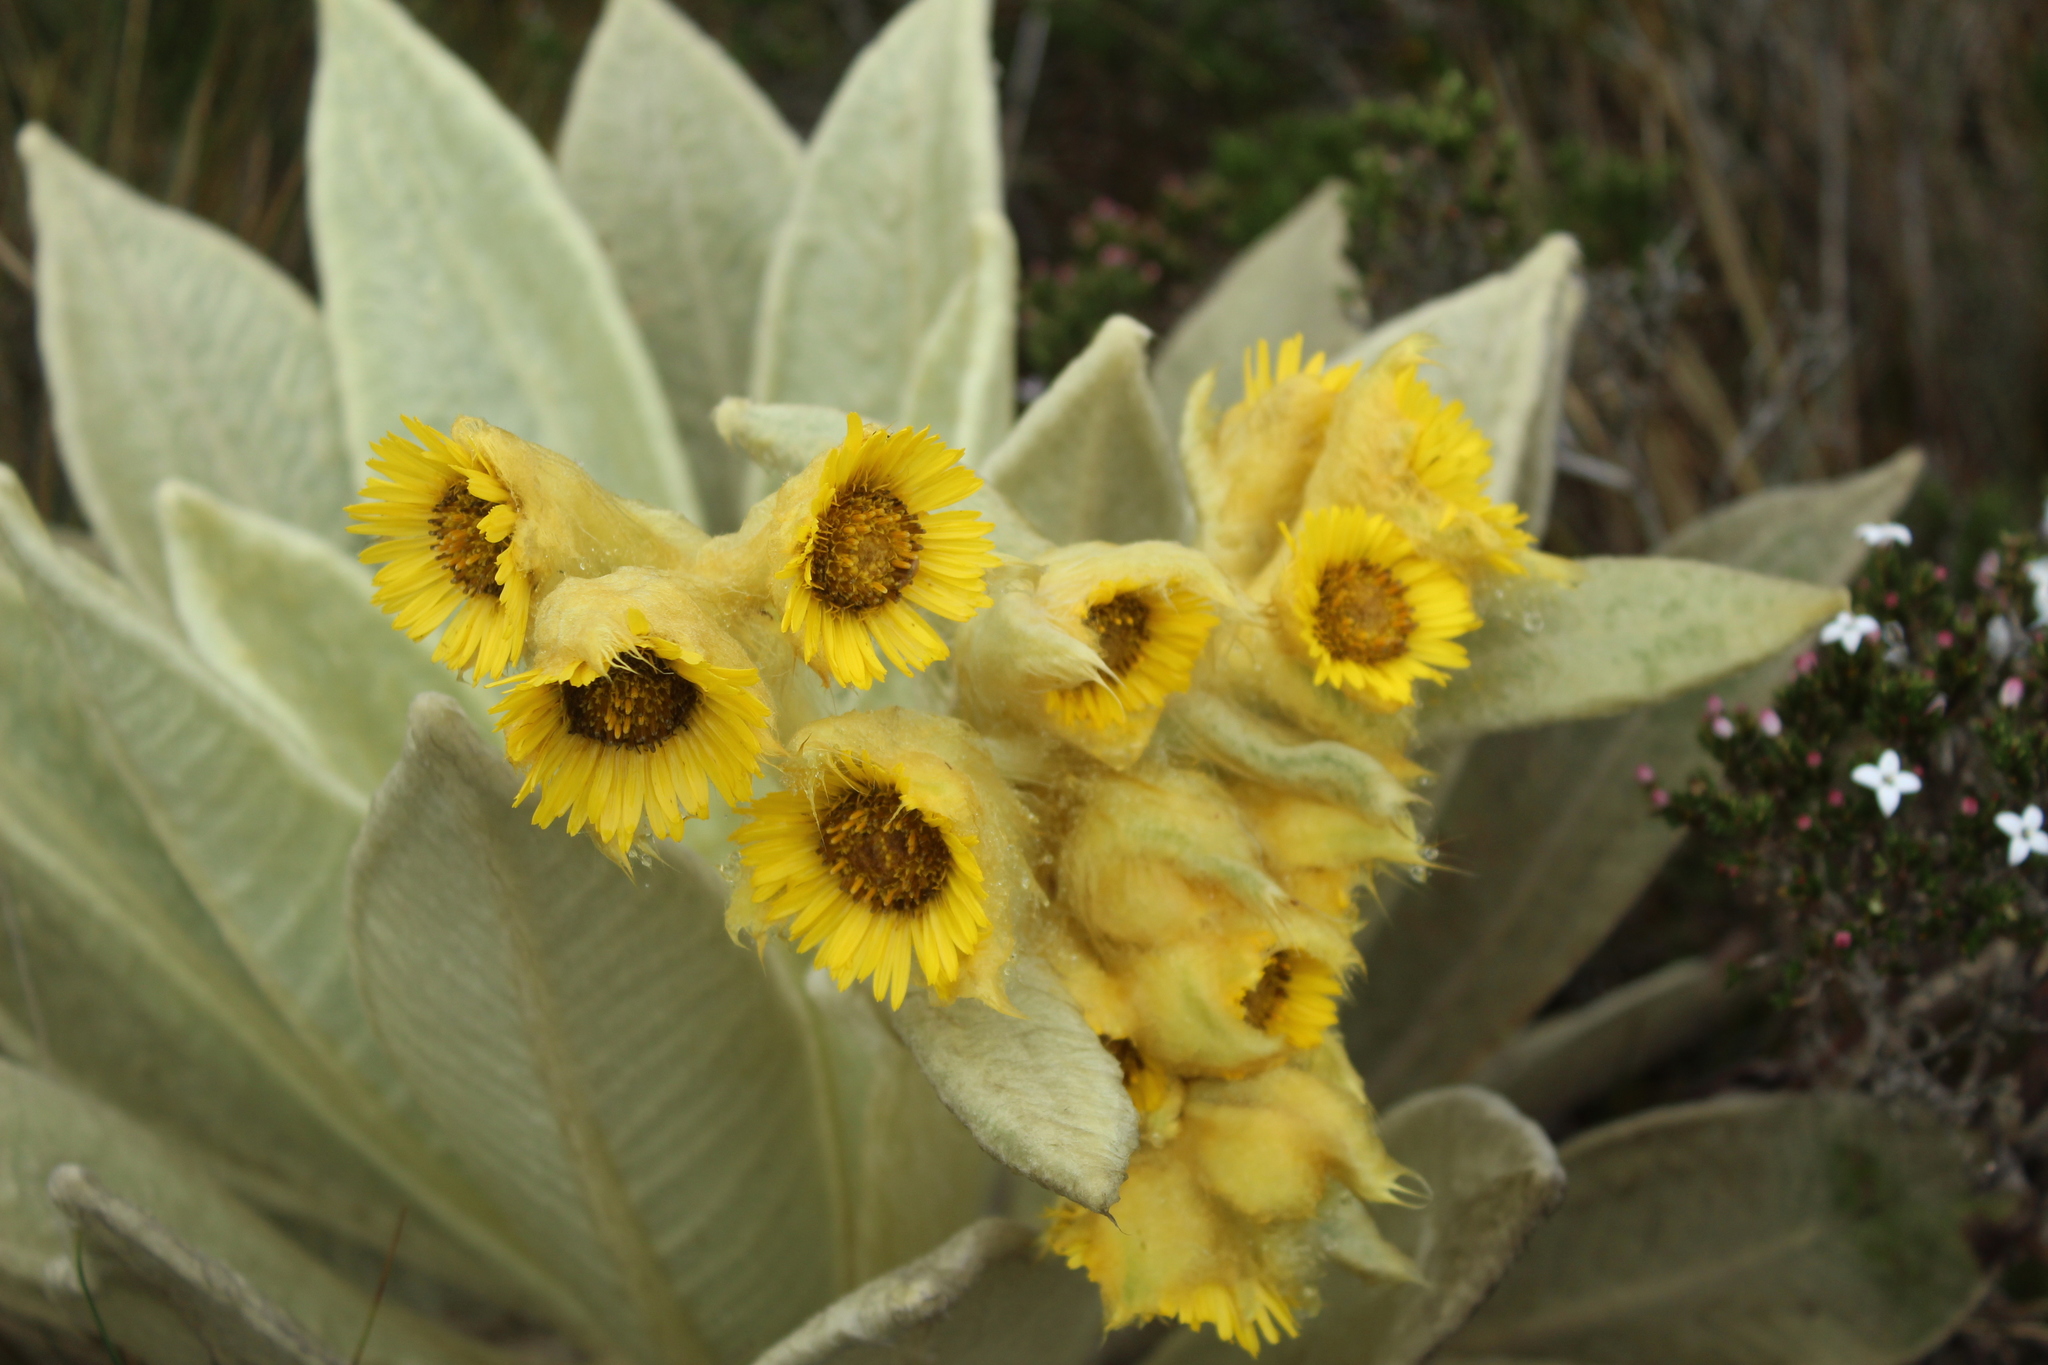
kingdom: Plantae
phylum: Tracheophyta
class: Magnoliopsida
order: Asterales
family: Asteraceae
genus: Espeletia
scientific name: Espeletia barclayana
